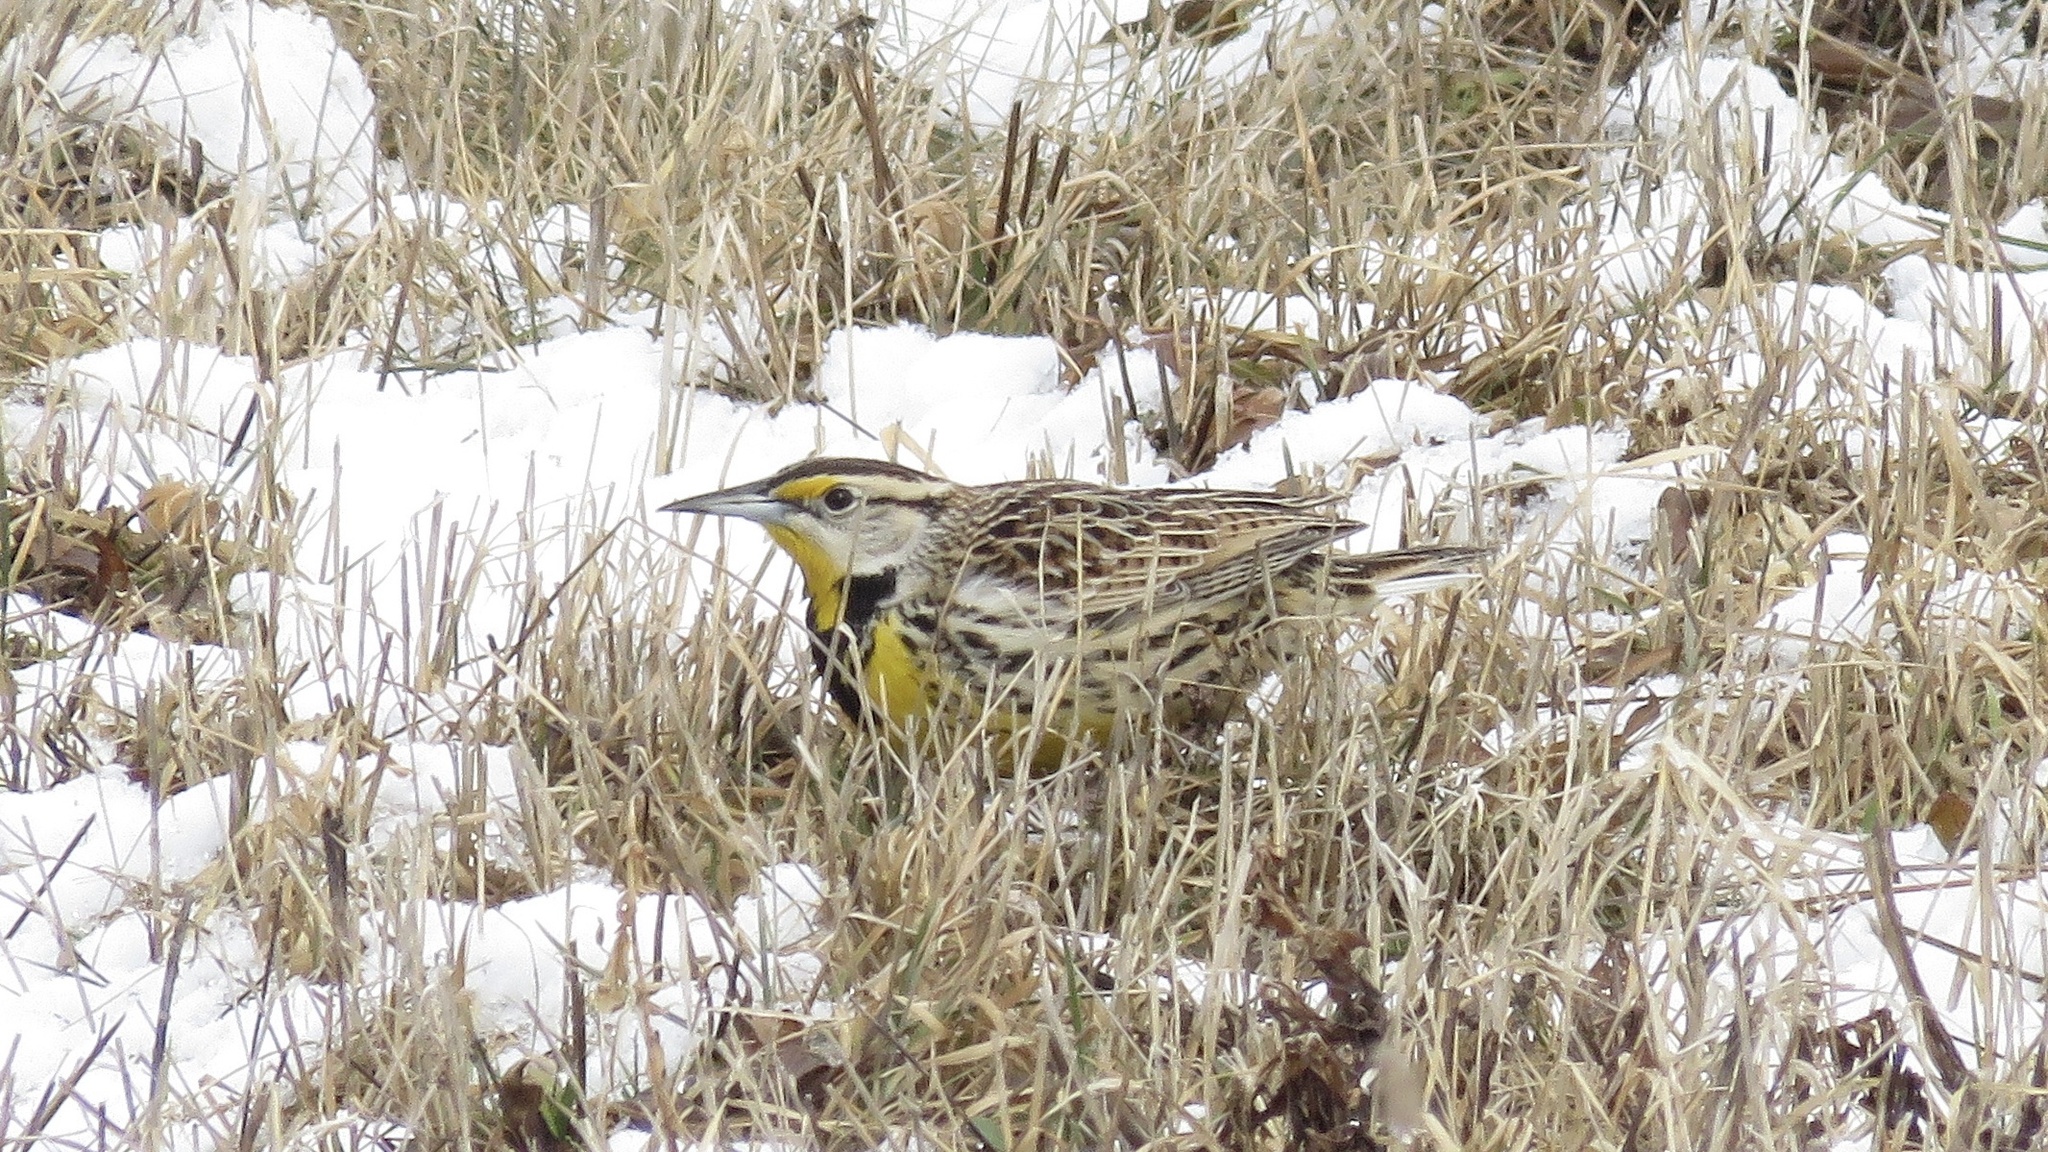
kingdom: Animalia
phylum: Chordata
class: Aves
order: Passeriformes
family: Icteridae
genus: Sturnella
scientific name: Sturnella magna
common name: Eastern meadowlark
